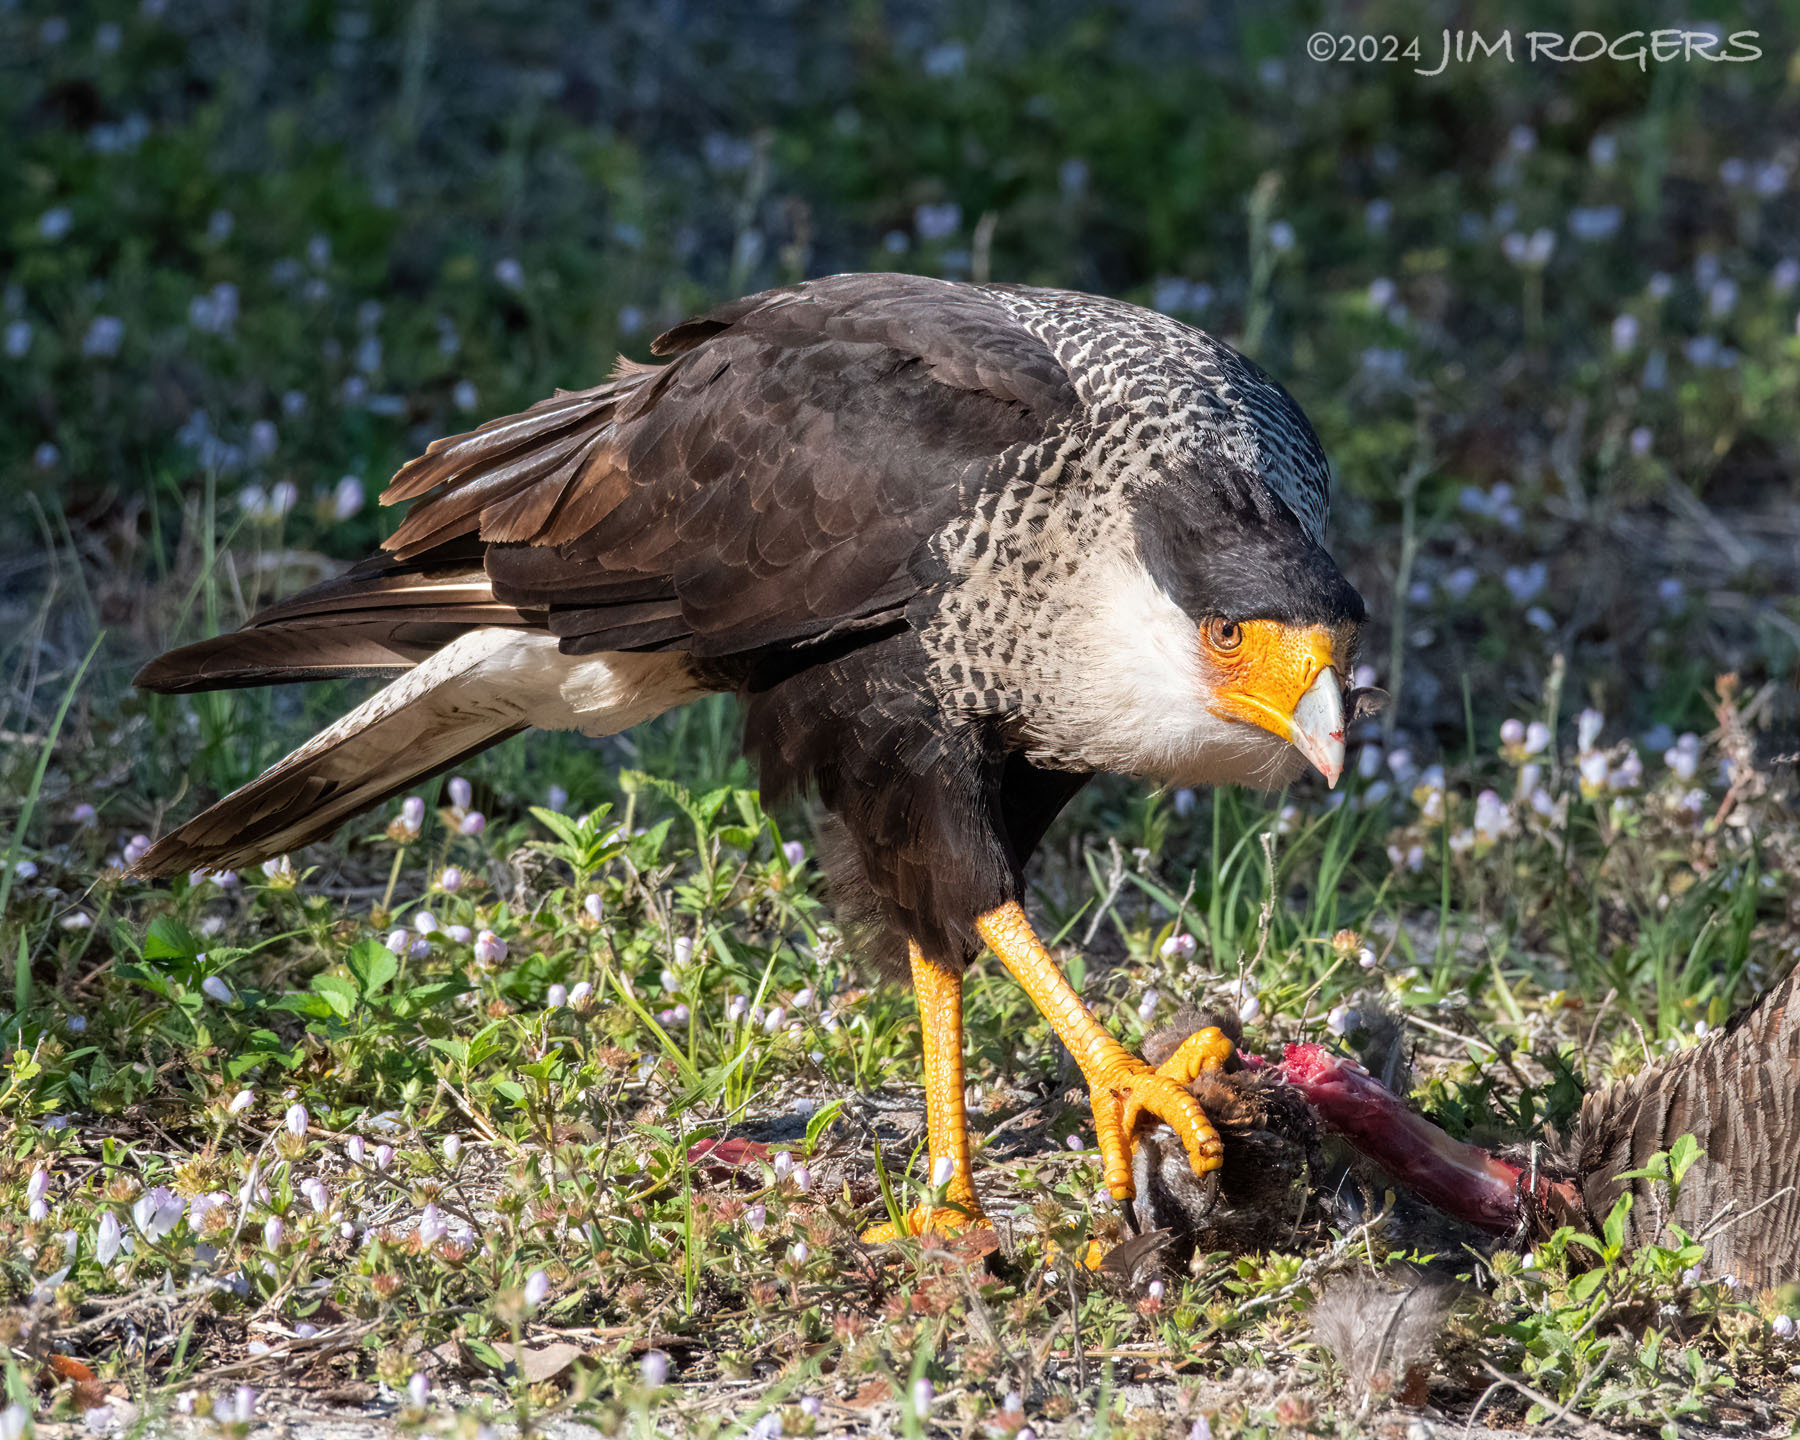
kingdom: Animalia
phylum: Chordata
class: Aves
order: Falconiformes
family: Falconidae
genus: Caracara
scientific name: Caracara plancus
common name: Southern caracara
